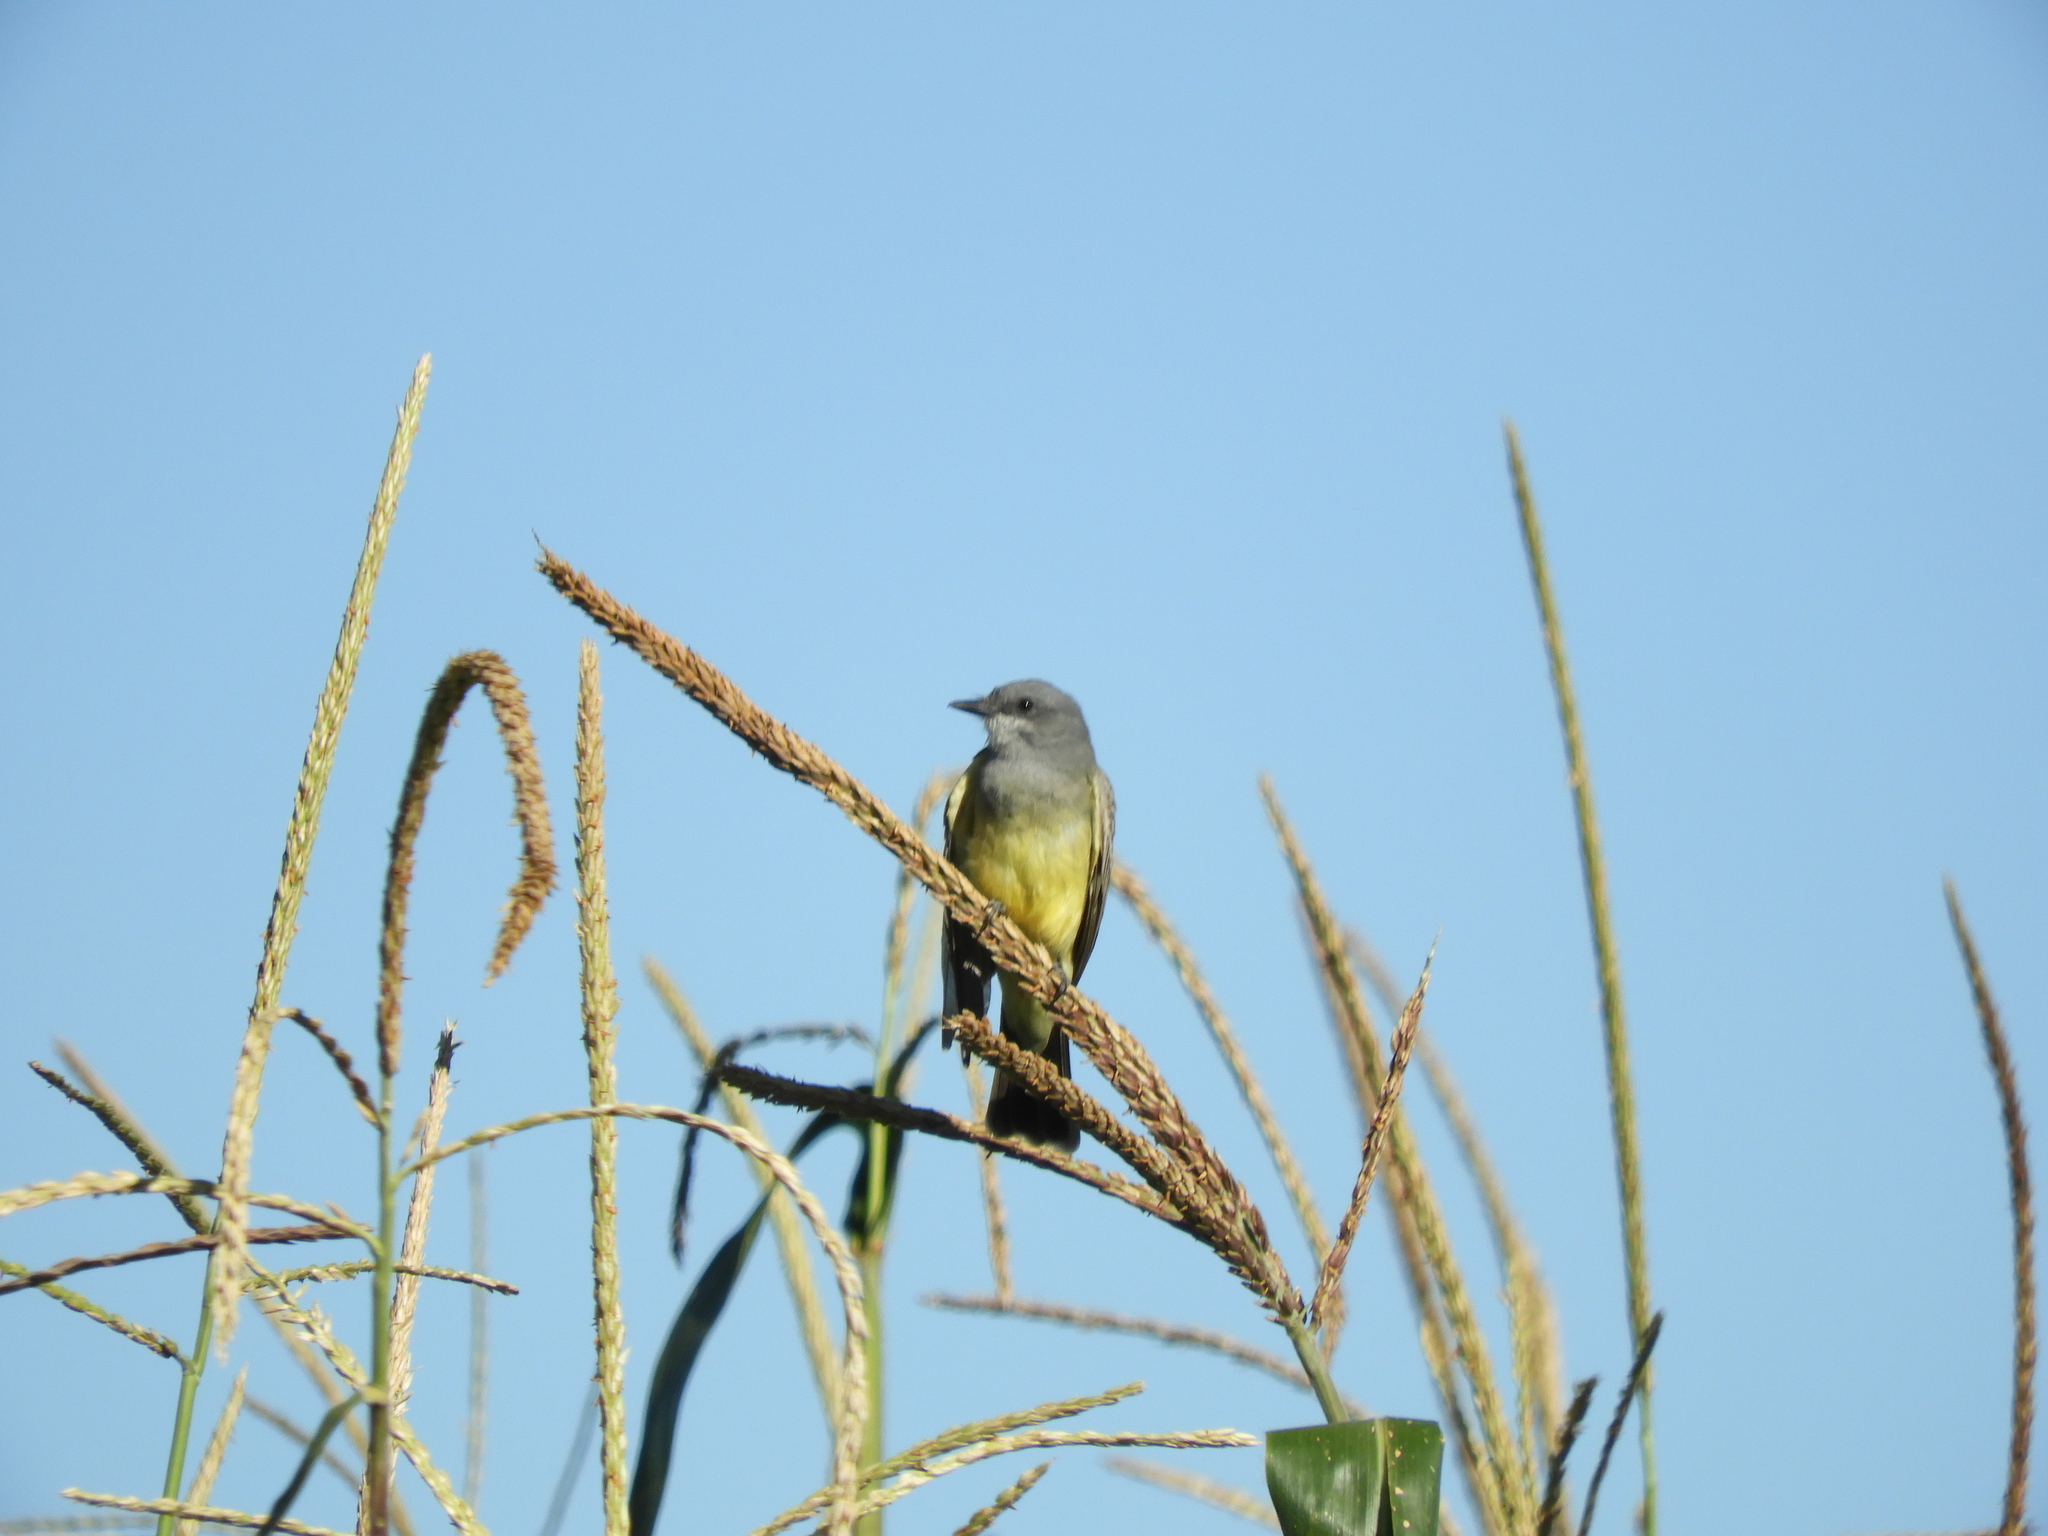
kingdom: Animalia
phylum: Chordata
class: Aves
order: Passeriformes
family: Tyrannidae
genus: Tyrannus
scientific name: Tyrannus vociferans
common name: Cassin's kingbird
